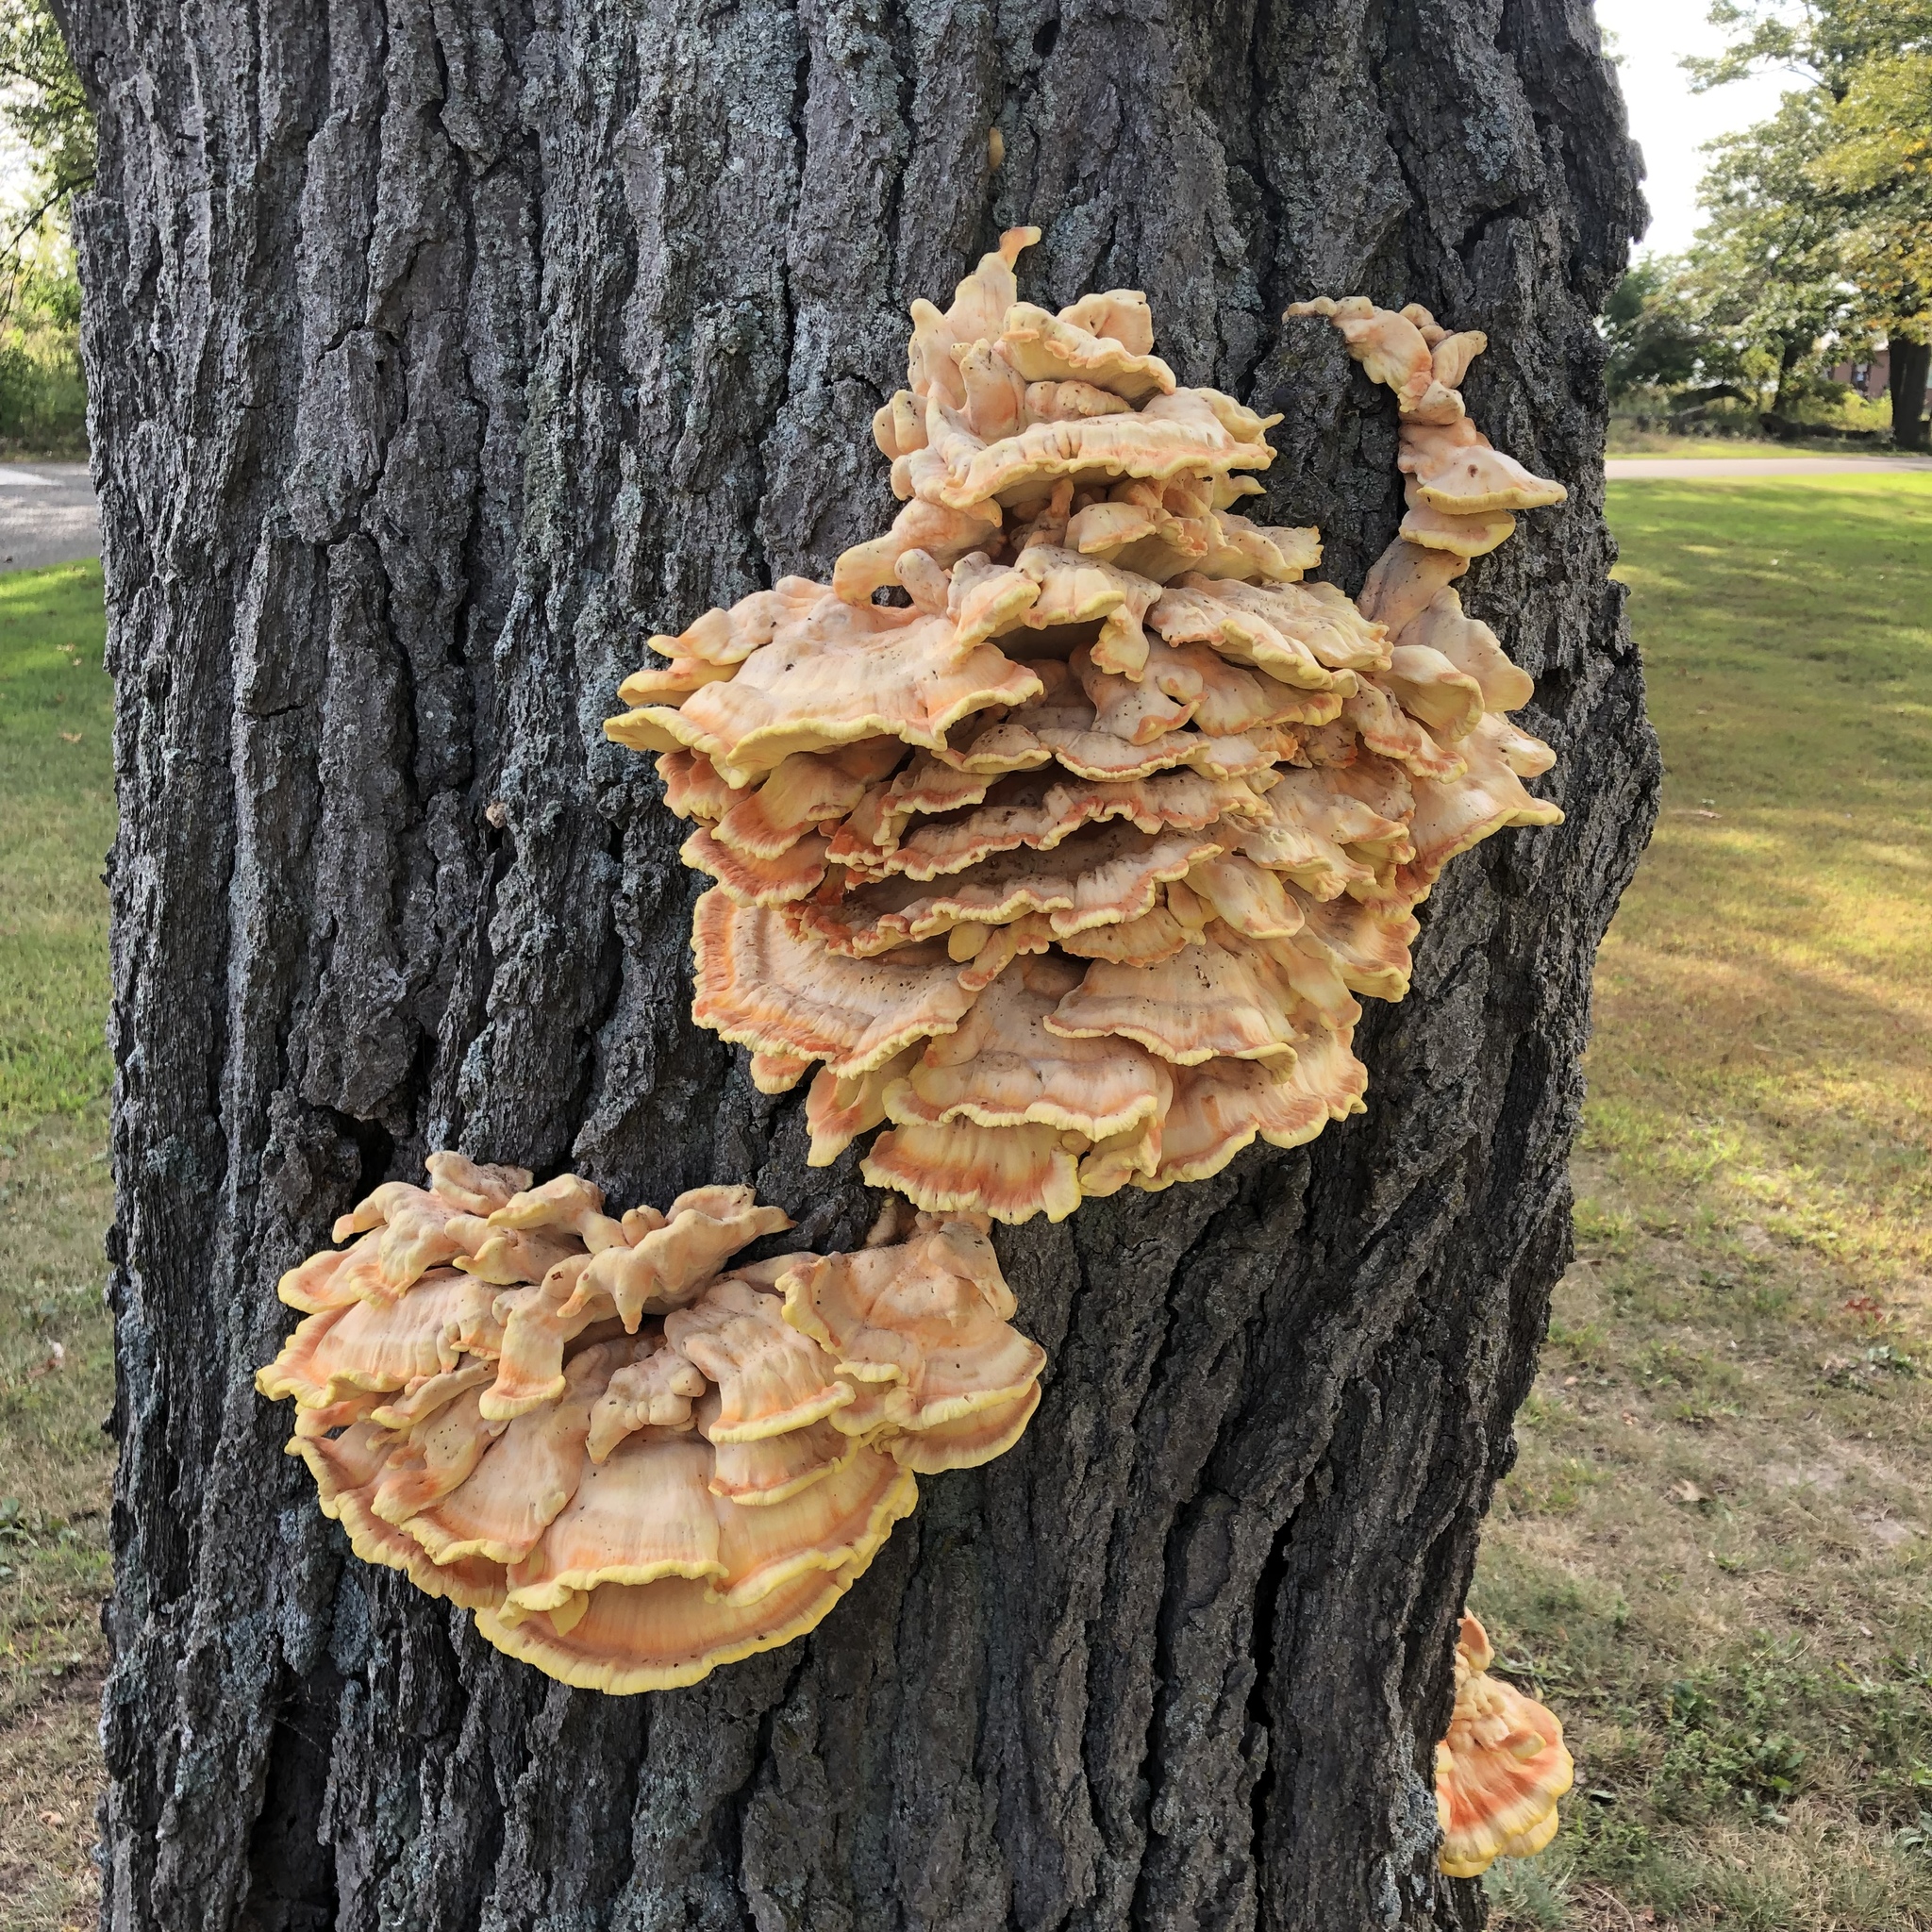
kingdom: Fungi
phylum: Basidiomycota
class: Agaricomycetes
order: Polyporales
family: Laetiporaceae
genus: Laetiporus
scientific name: Laetiporus sulphureus
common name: Chicken of the woods
